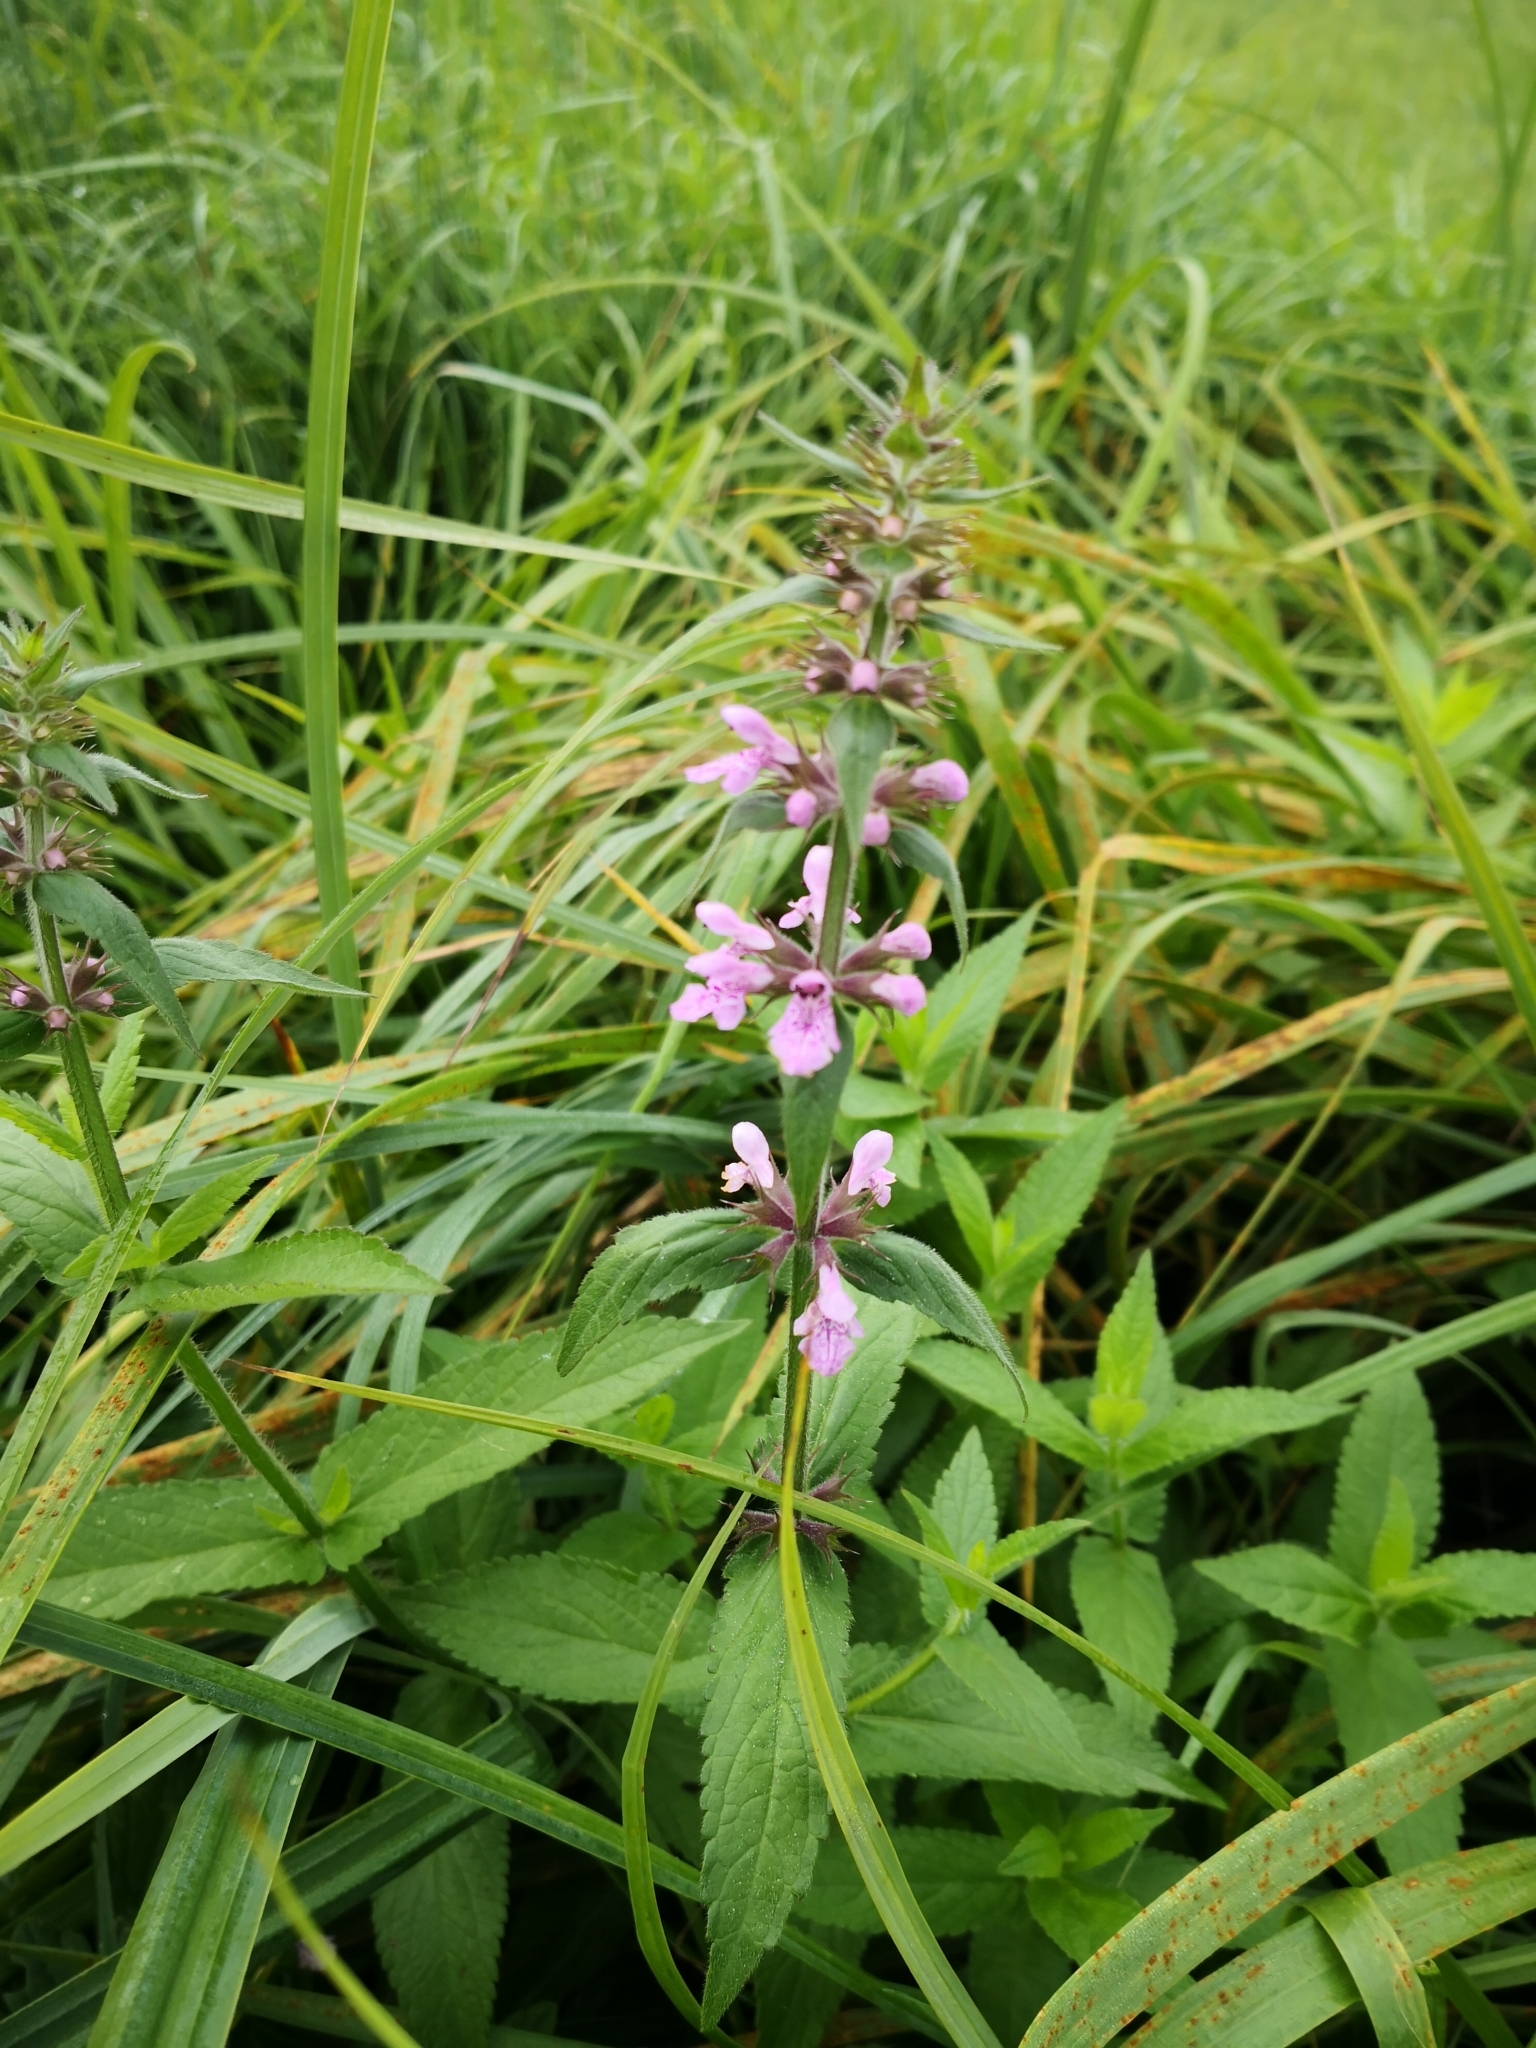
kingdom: Plantae
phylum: Tracheophyta
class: Magnoliopsida
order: Lamiales
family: Lamiaceae
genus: Stachys
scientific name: Stachys palustris
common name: Marsh woundwort
